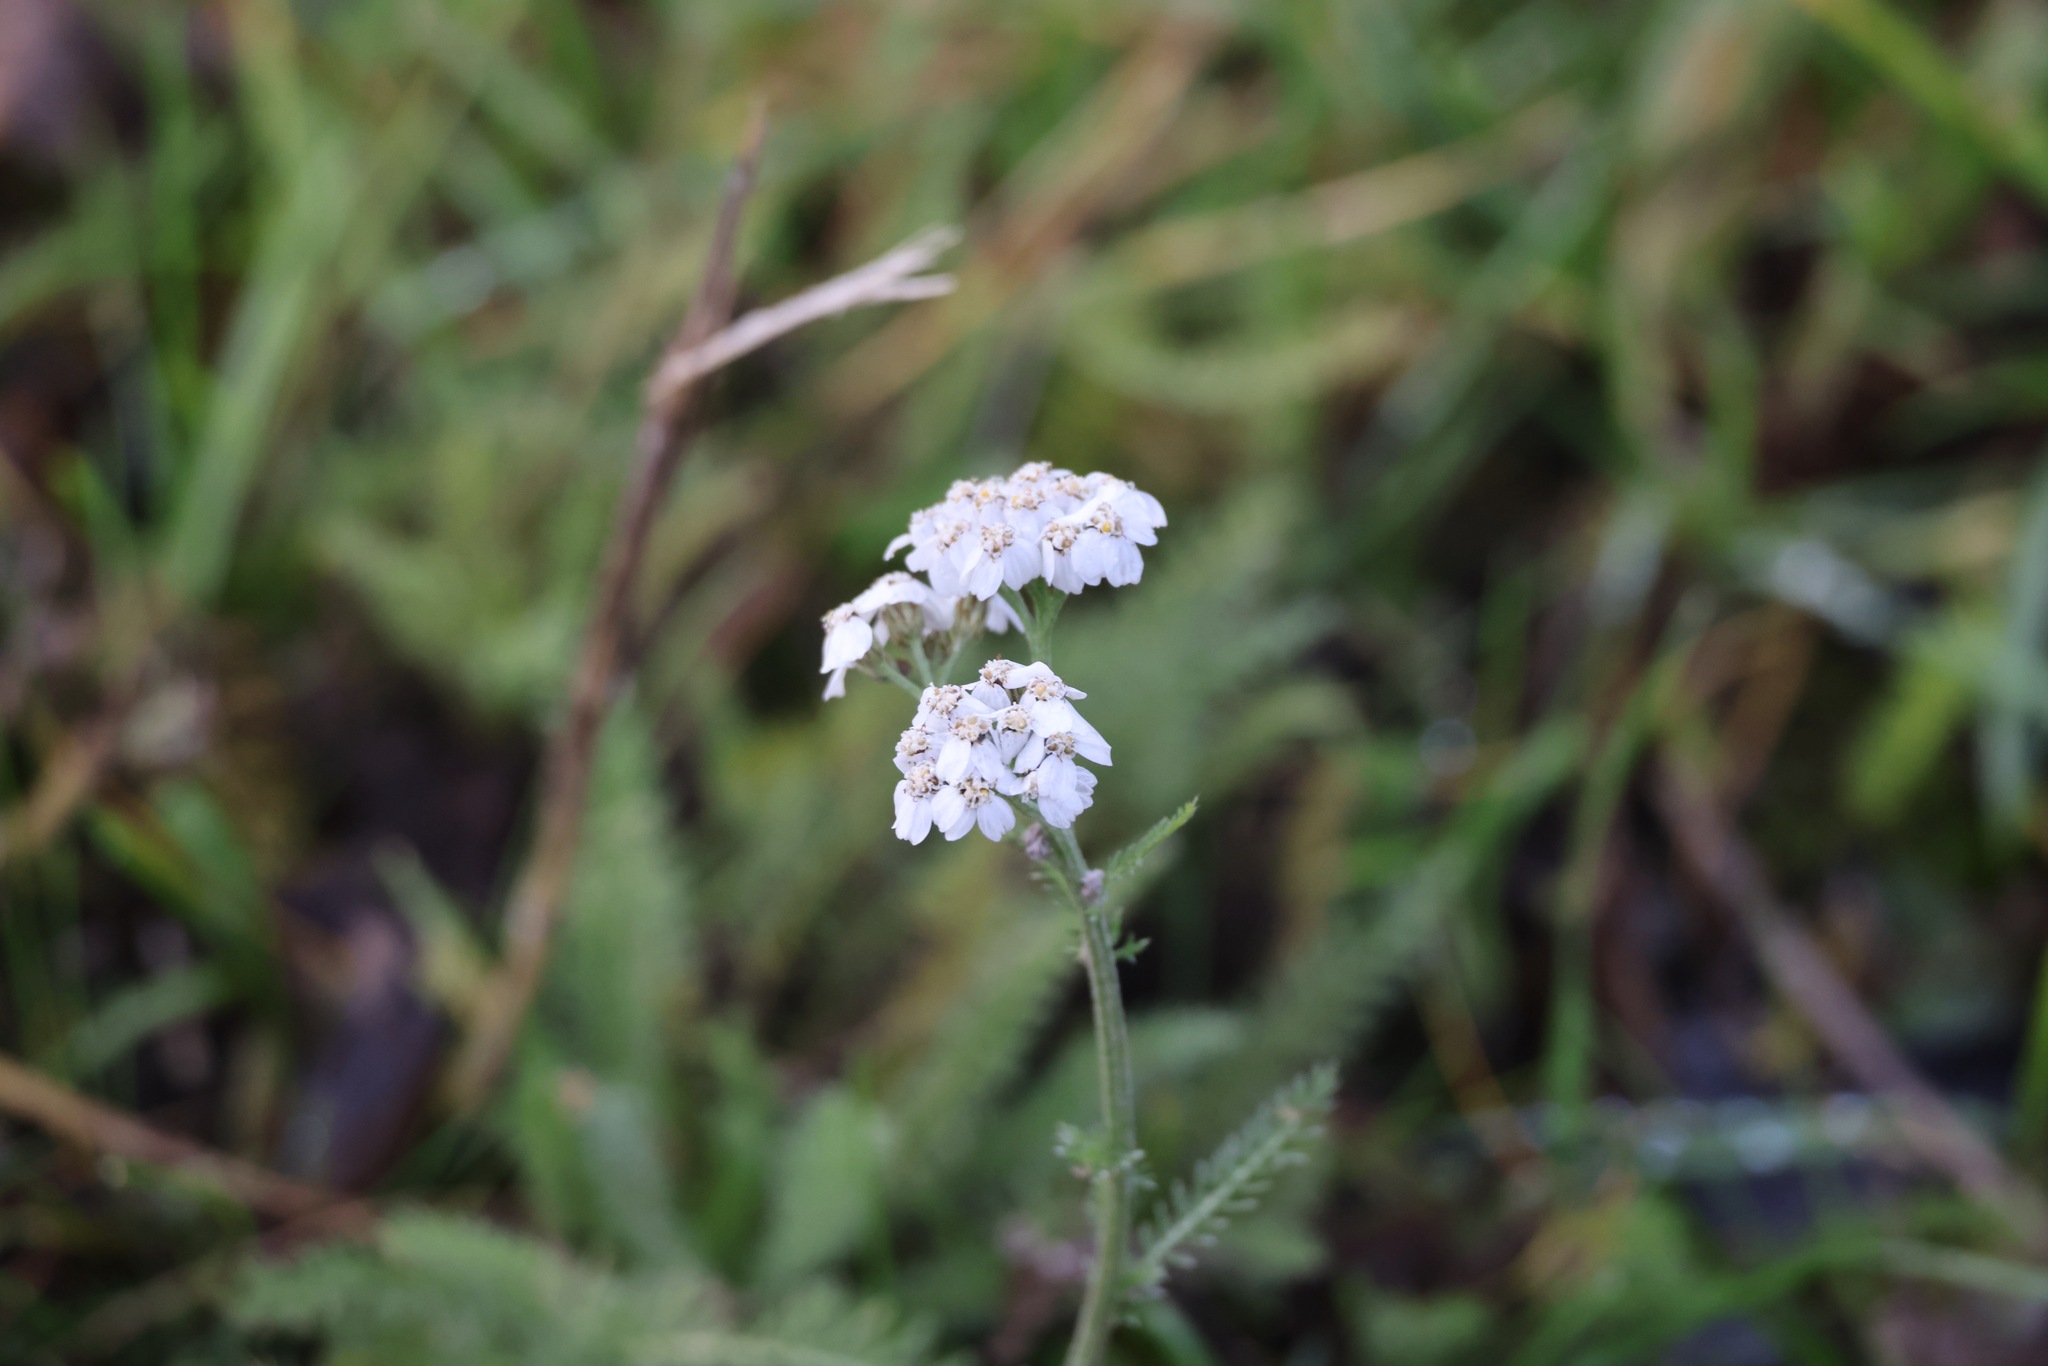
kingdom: Plantae
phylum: Tracheophyta
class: Magnoliopsida
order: Asterales
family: Asteraceae
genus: Achillea
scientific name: Achillea millefolium
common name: Yarrow
